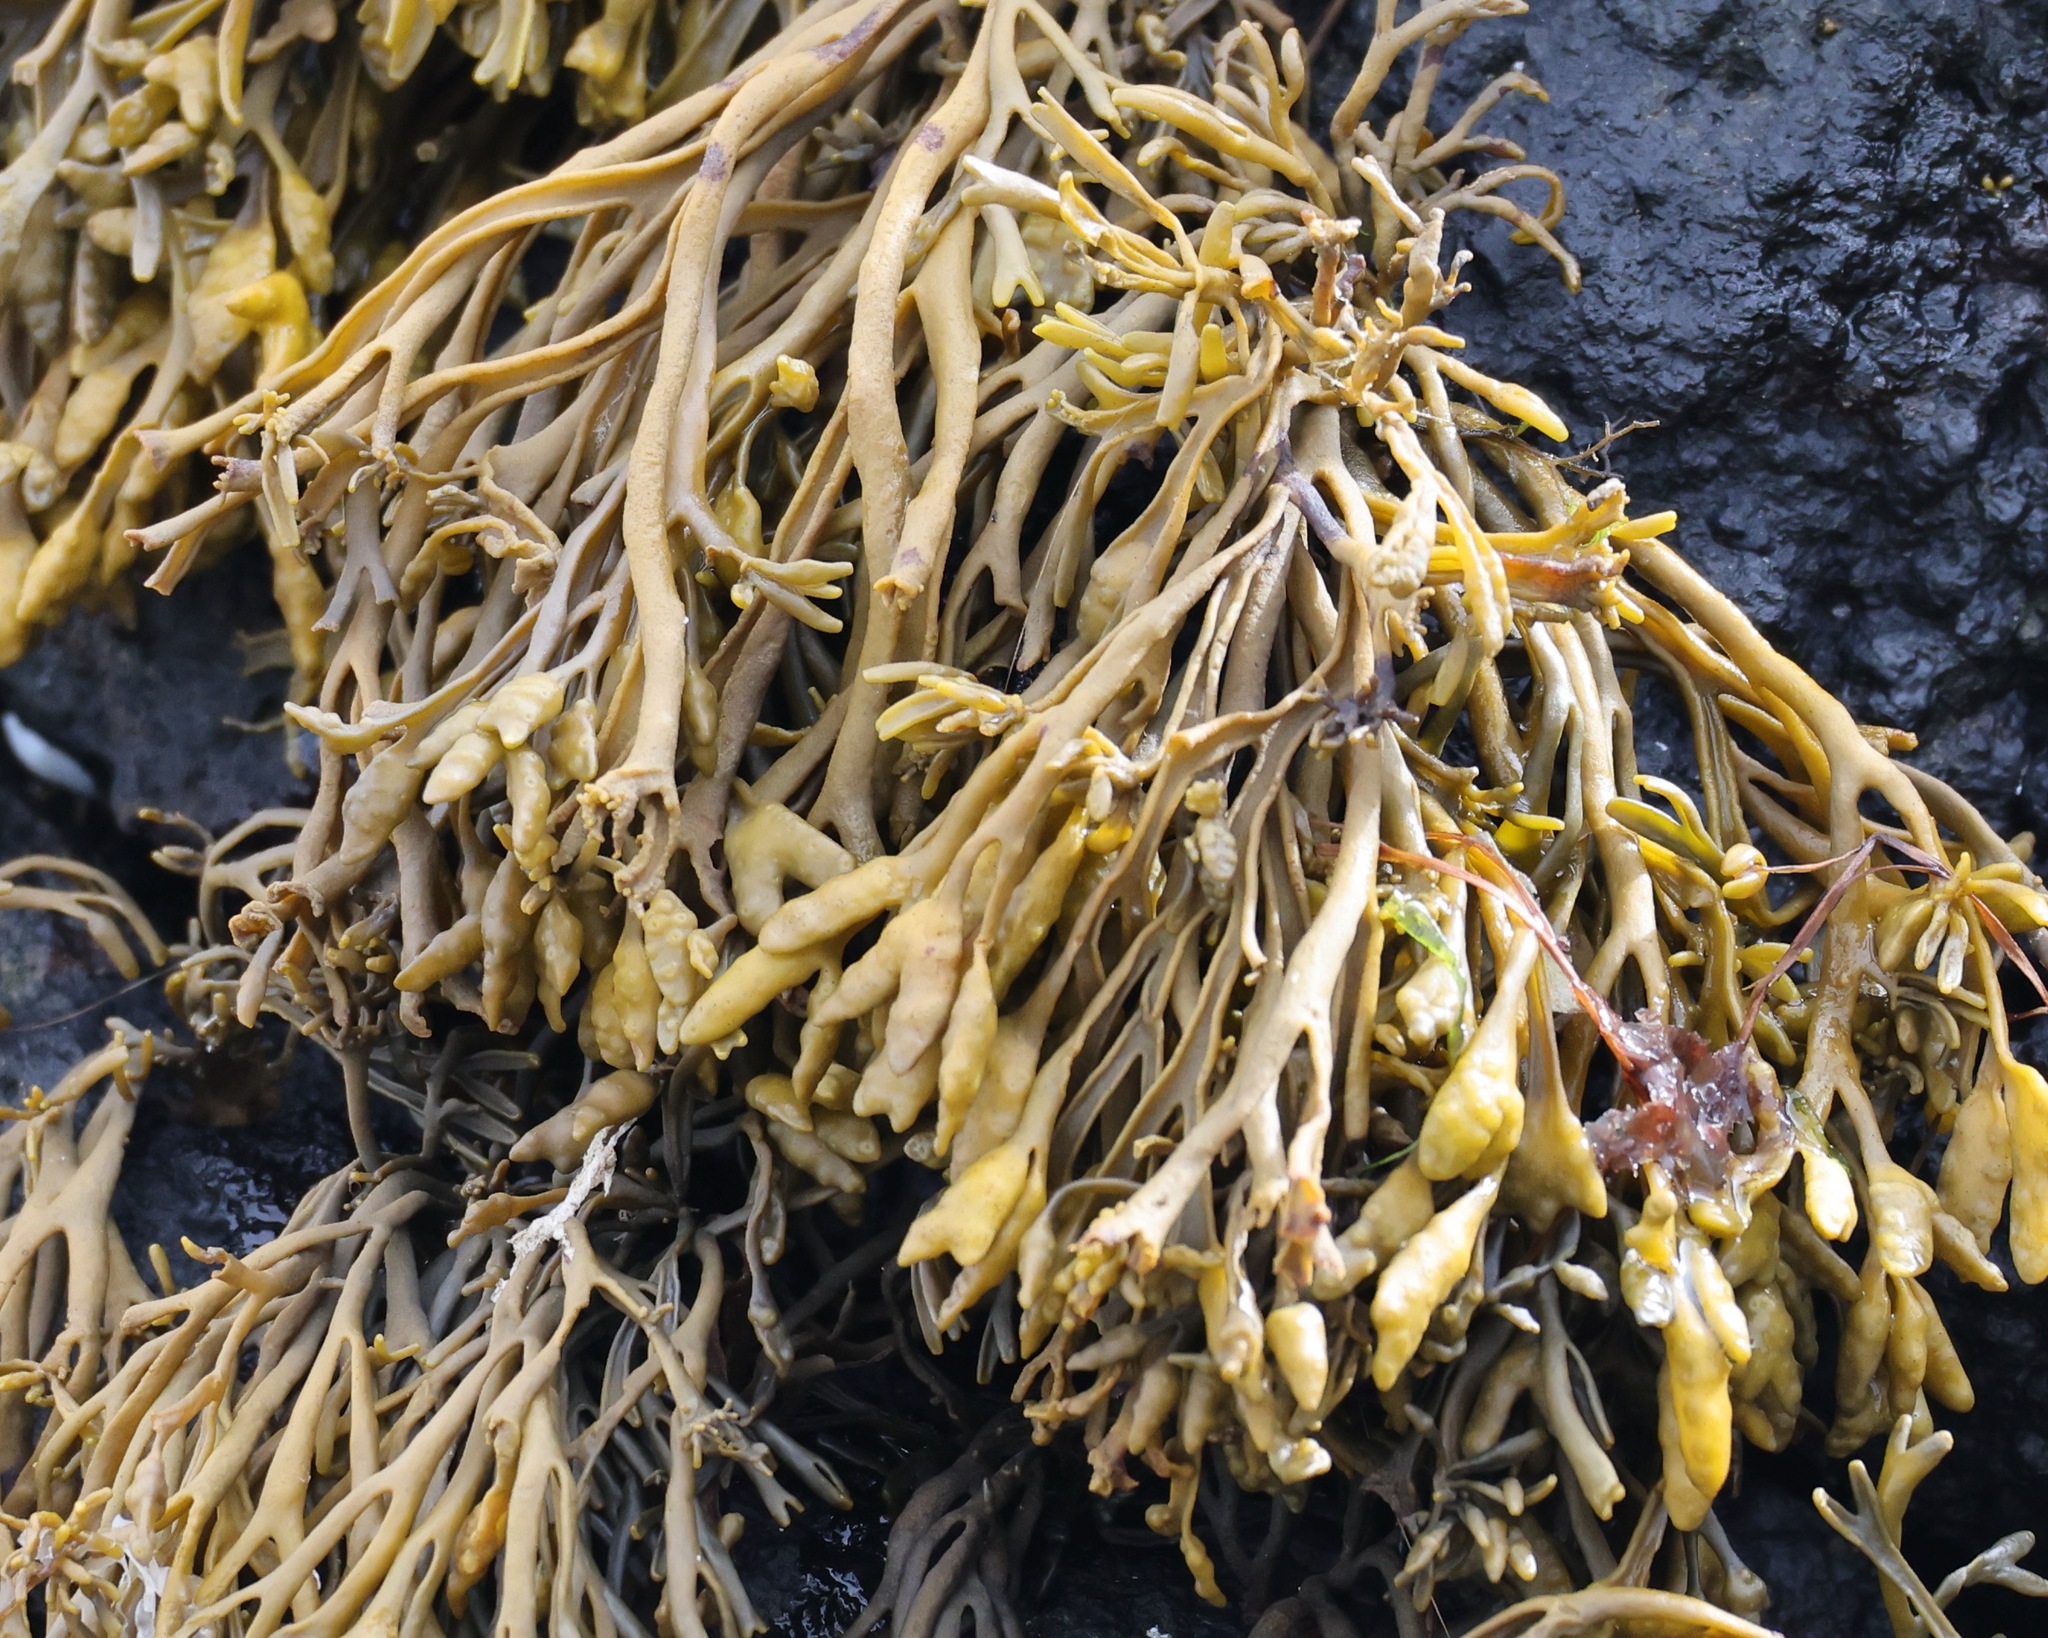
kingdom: Chromista
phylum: Ochrophyta
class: Phaeophyceae
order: Fucales
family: Fucaceae
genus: Pelvetia
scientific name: Pelvetia canaliculata
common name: Channelled wrack
